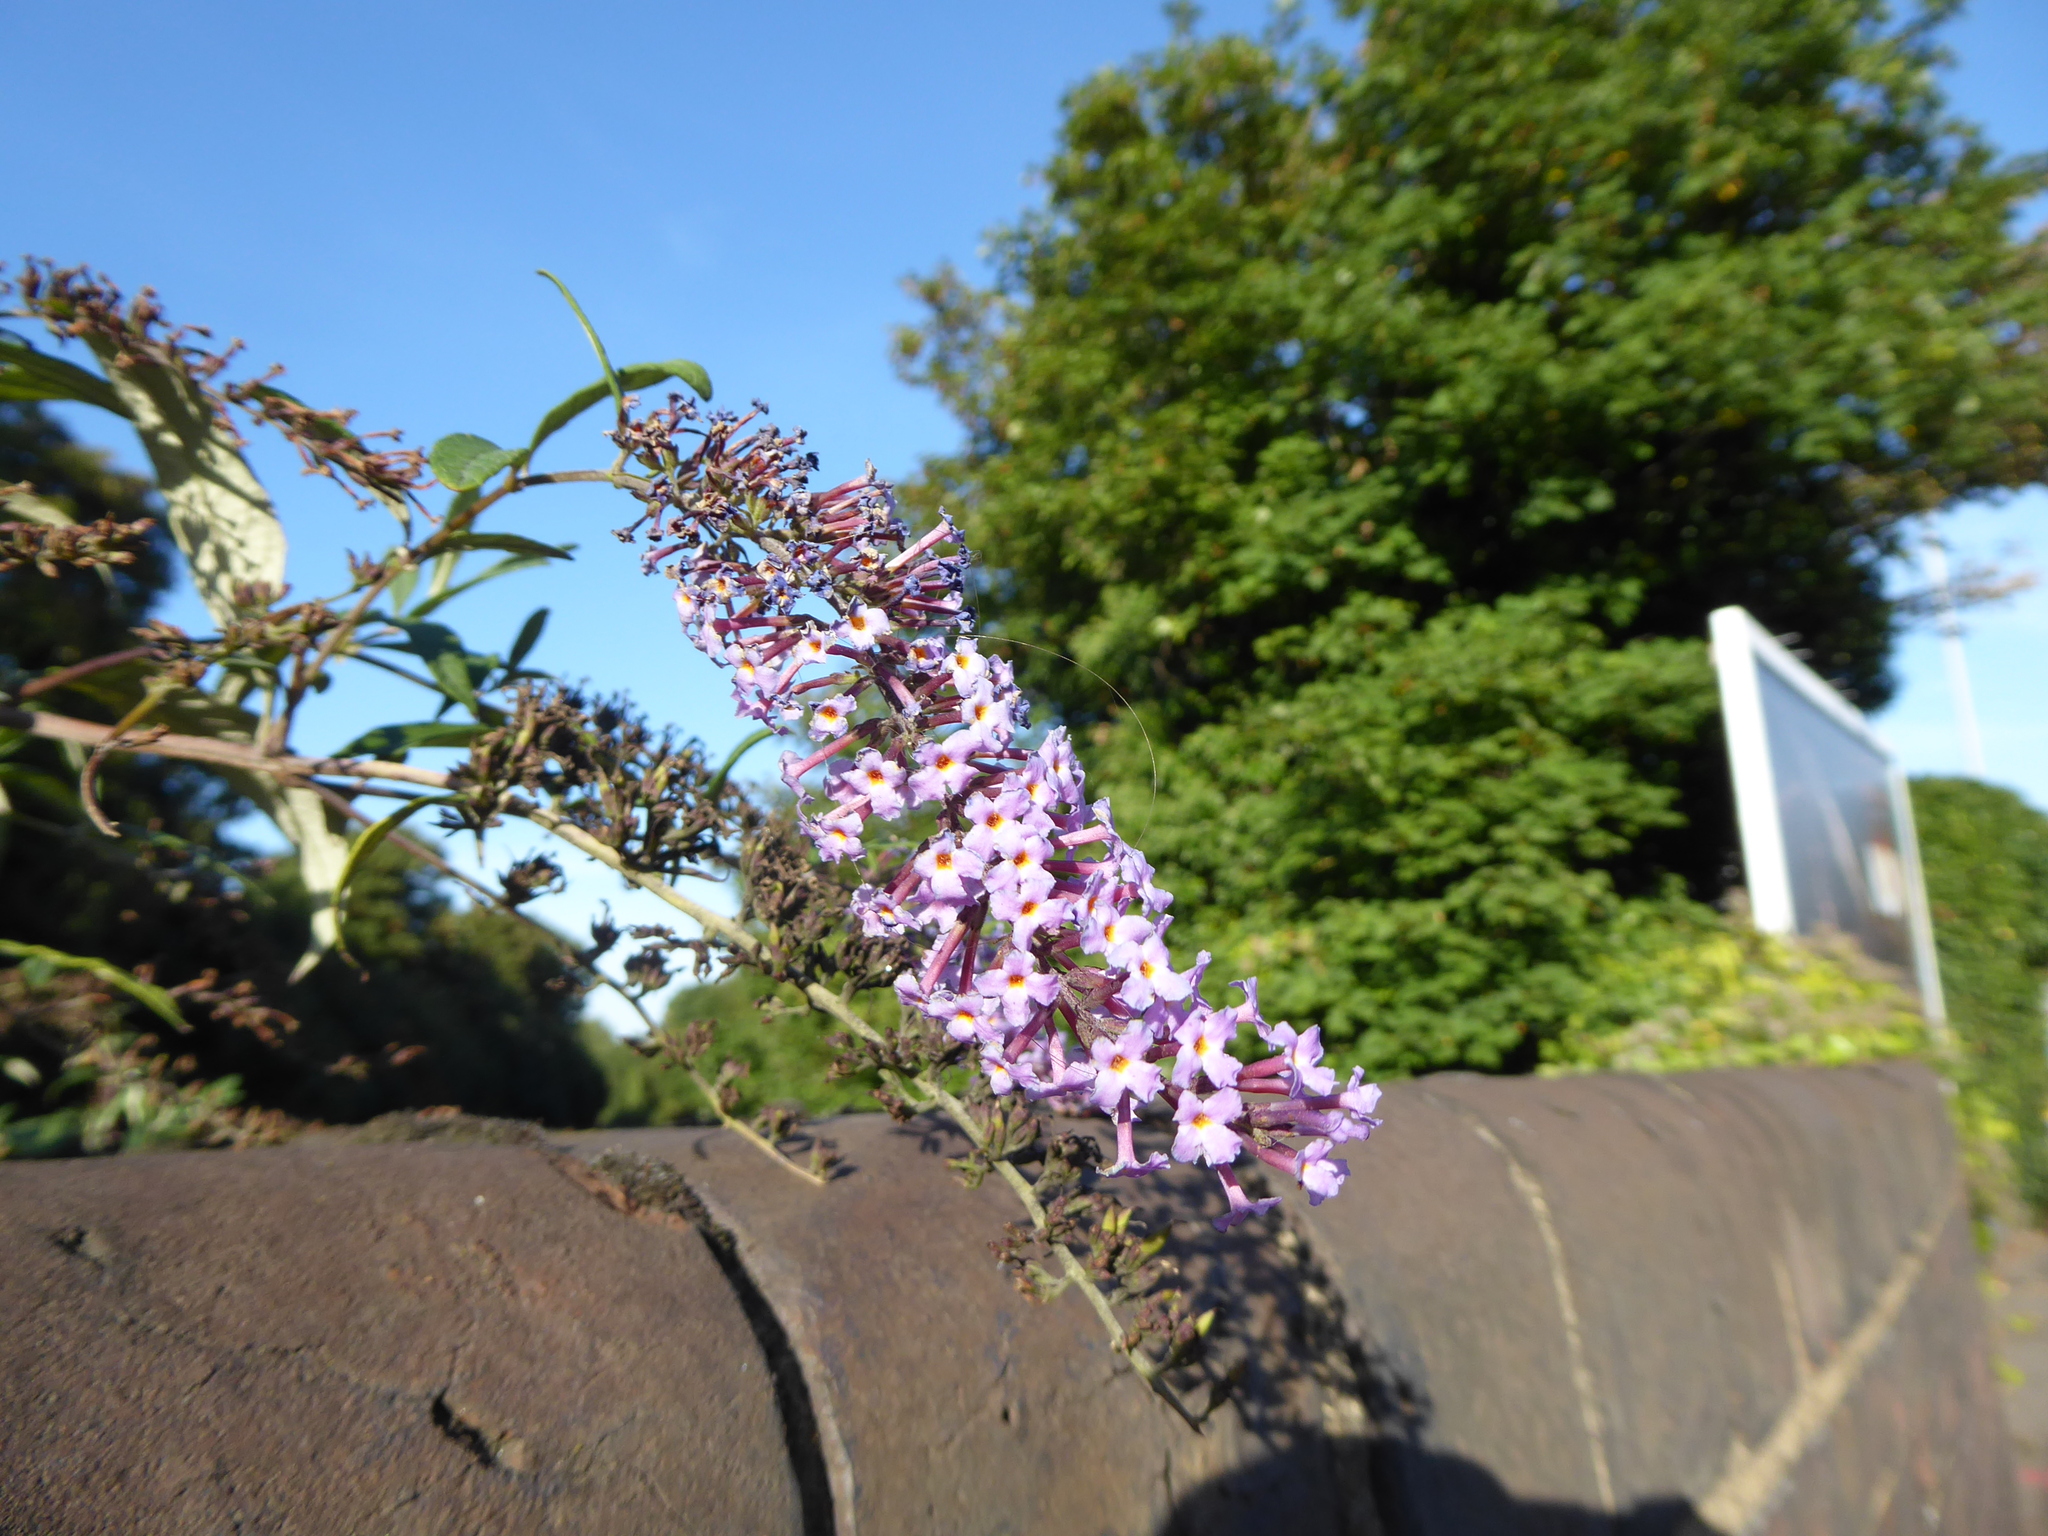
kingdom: Plantae
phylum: Tracheophyta
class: Magnoliopsida
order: Lamiales
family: Scrophulariaceae
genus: Buddleja
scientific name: Buddleja davidii
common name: Butterfly-bush
